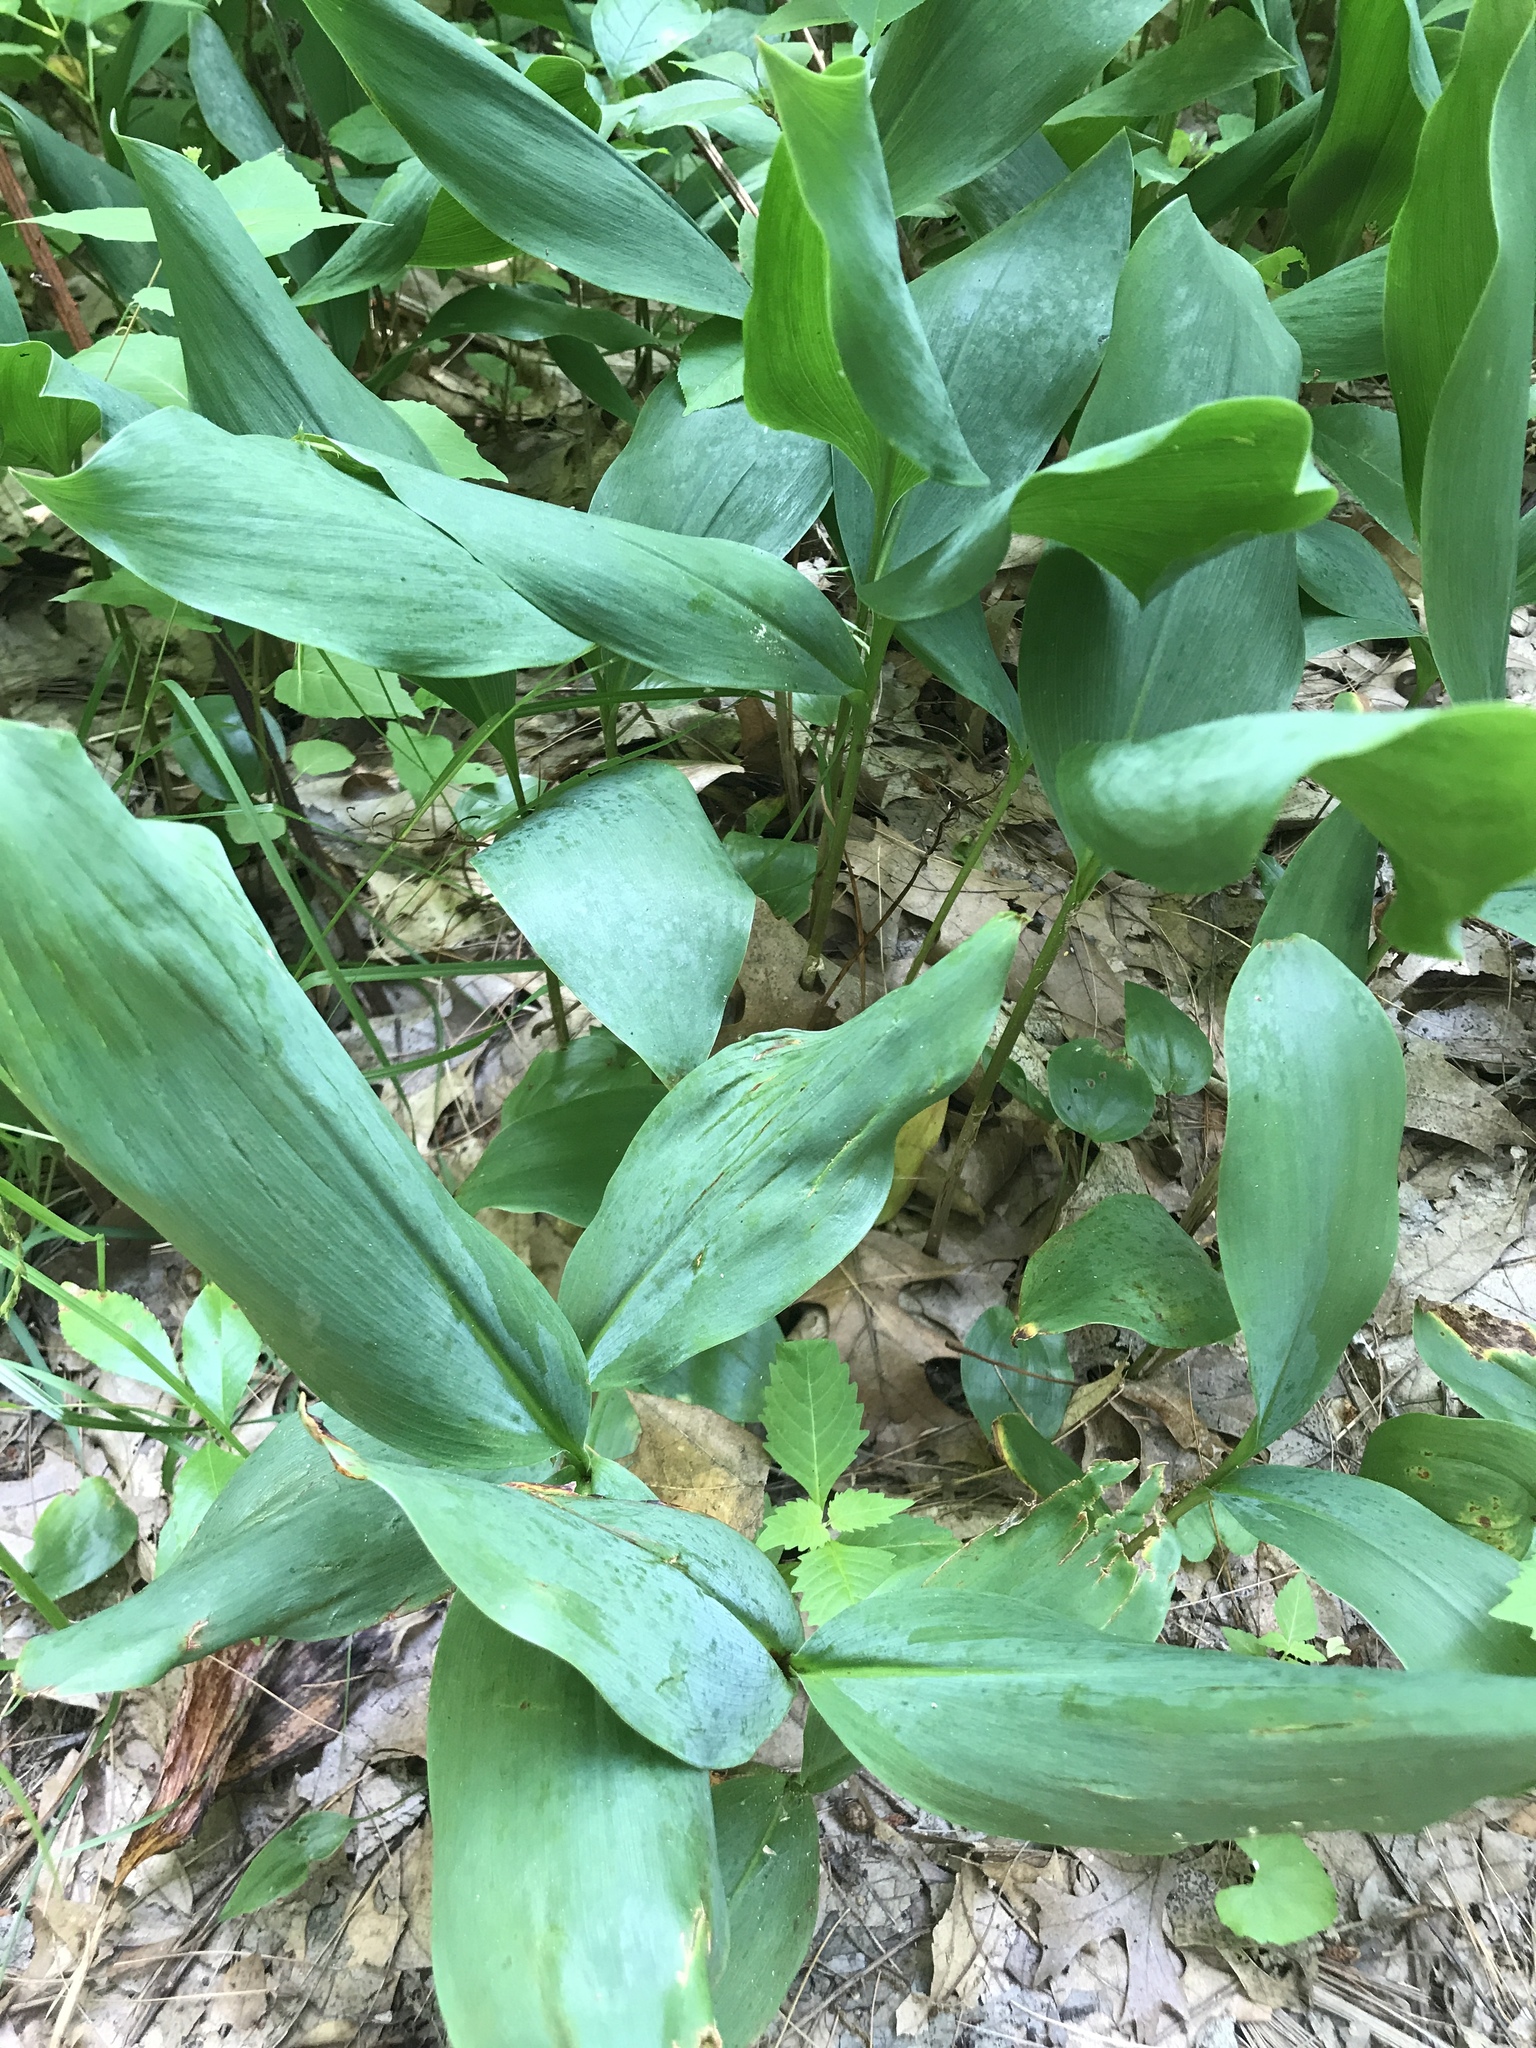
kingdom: Plantae
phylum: Tracheophyta
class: Liliopsida
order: Asparagales
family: Asparagaceae
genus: Convallaria
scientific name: Convallaria majalis
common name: Lily-of-the-valley
